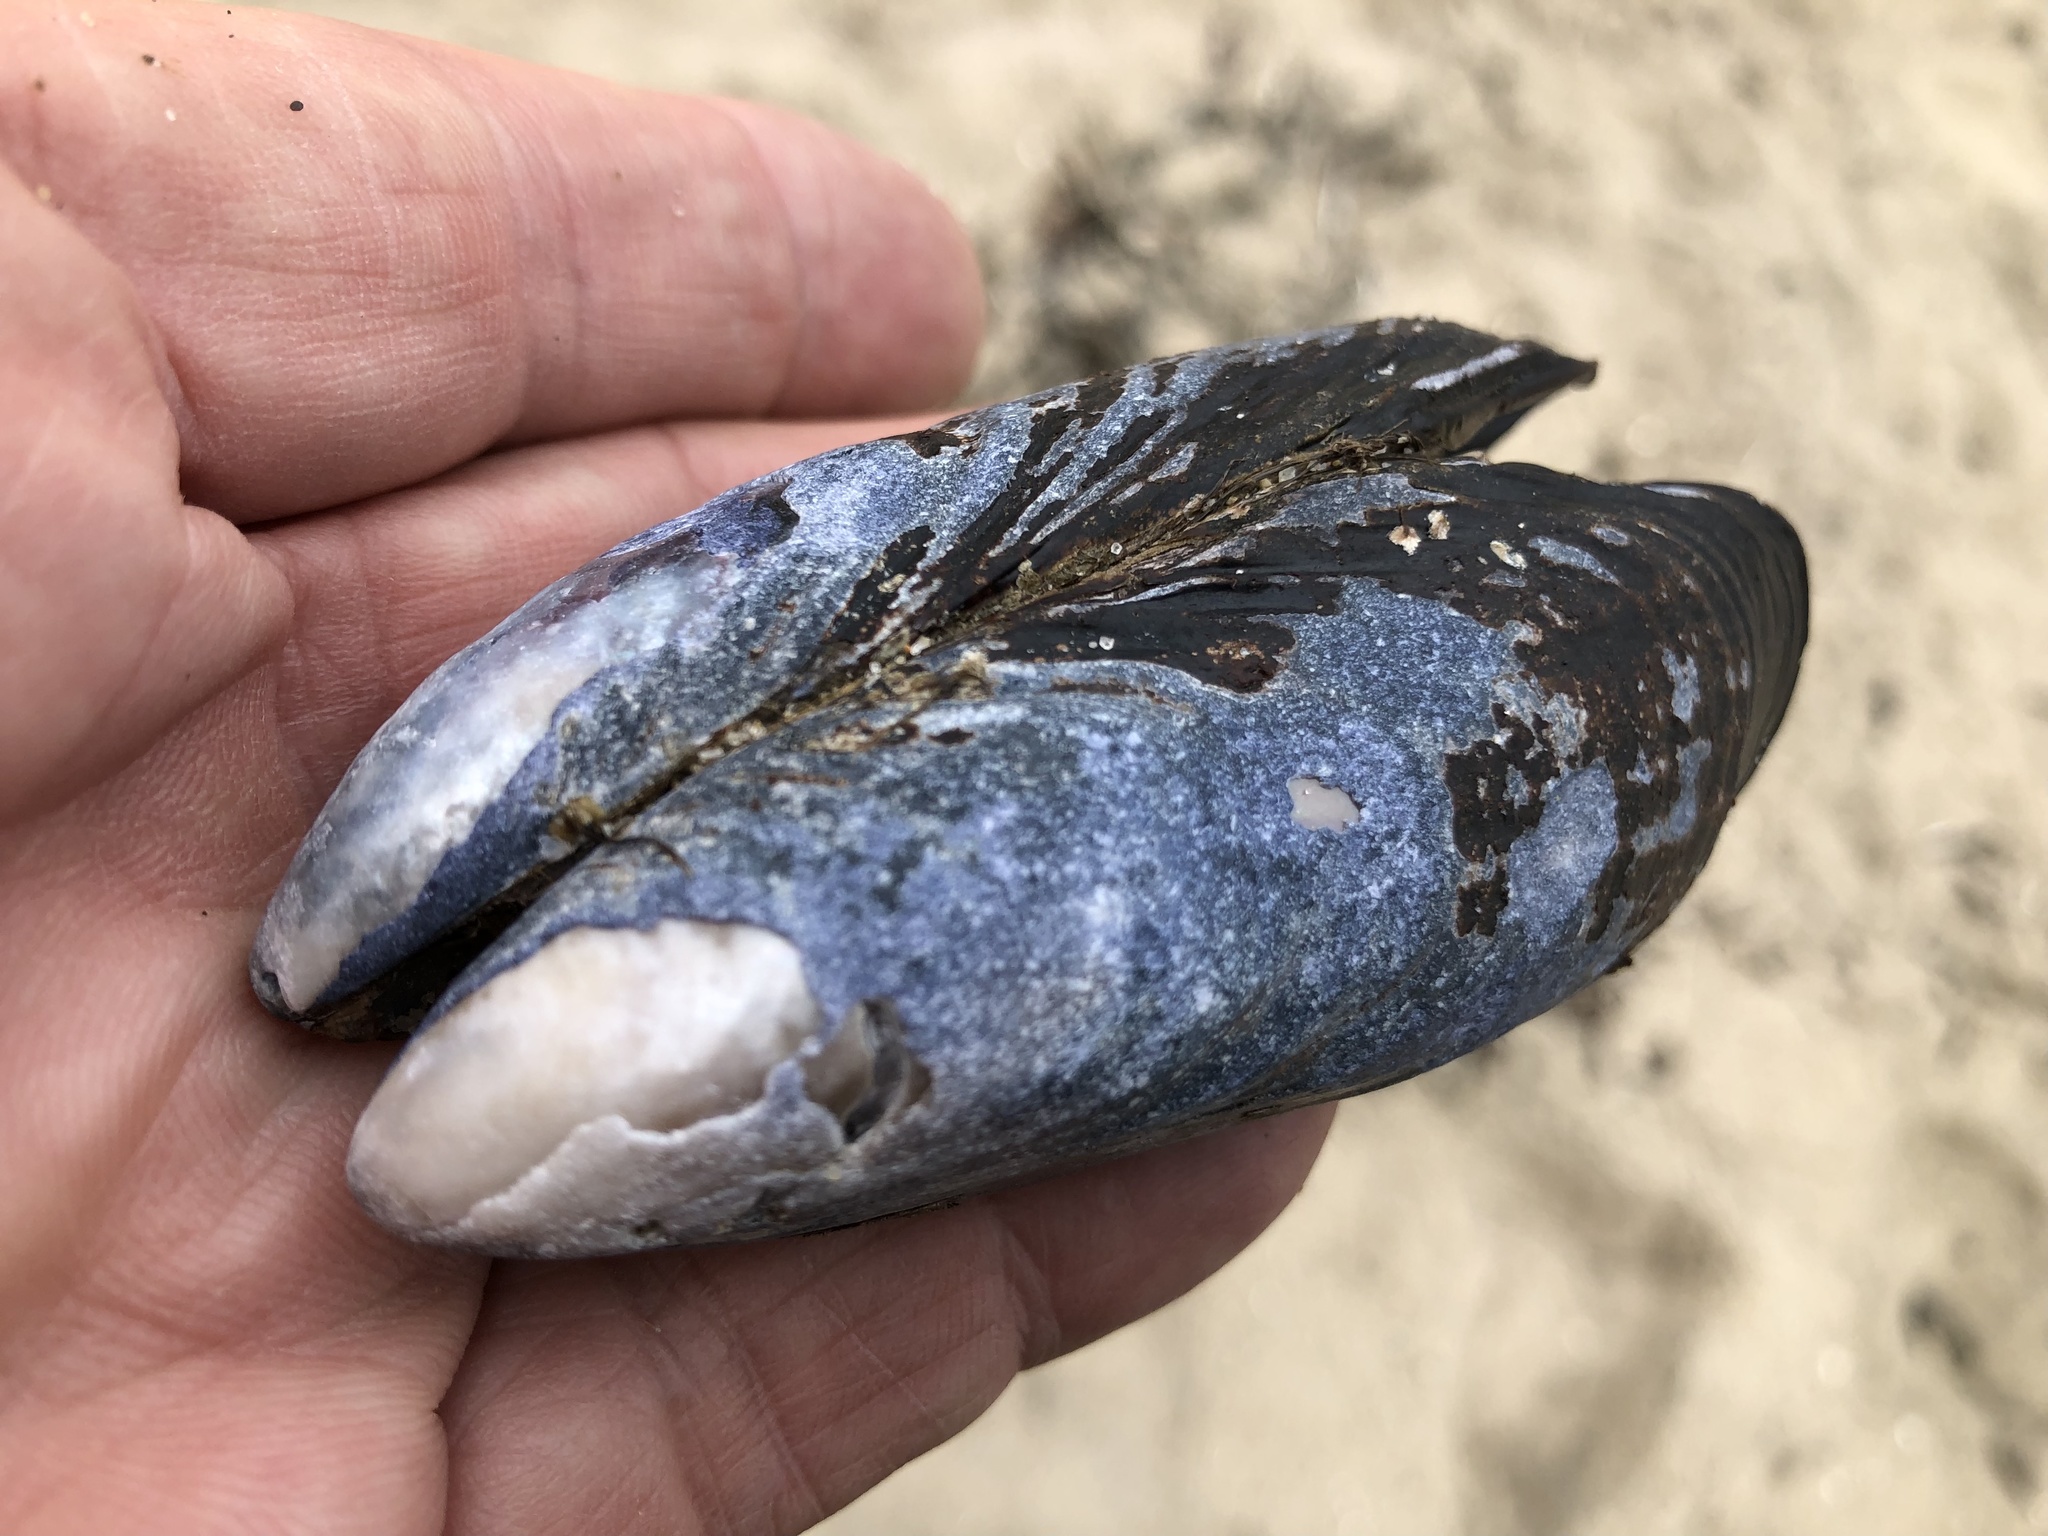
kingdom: Animalia
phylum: Mollusca
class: Bivalvia
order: Mytilida
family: Mytilidae
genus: Mytilus
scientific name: Mytilus californianus
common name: California mussel
